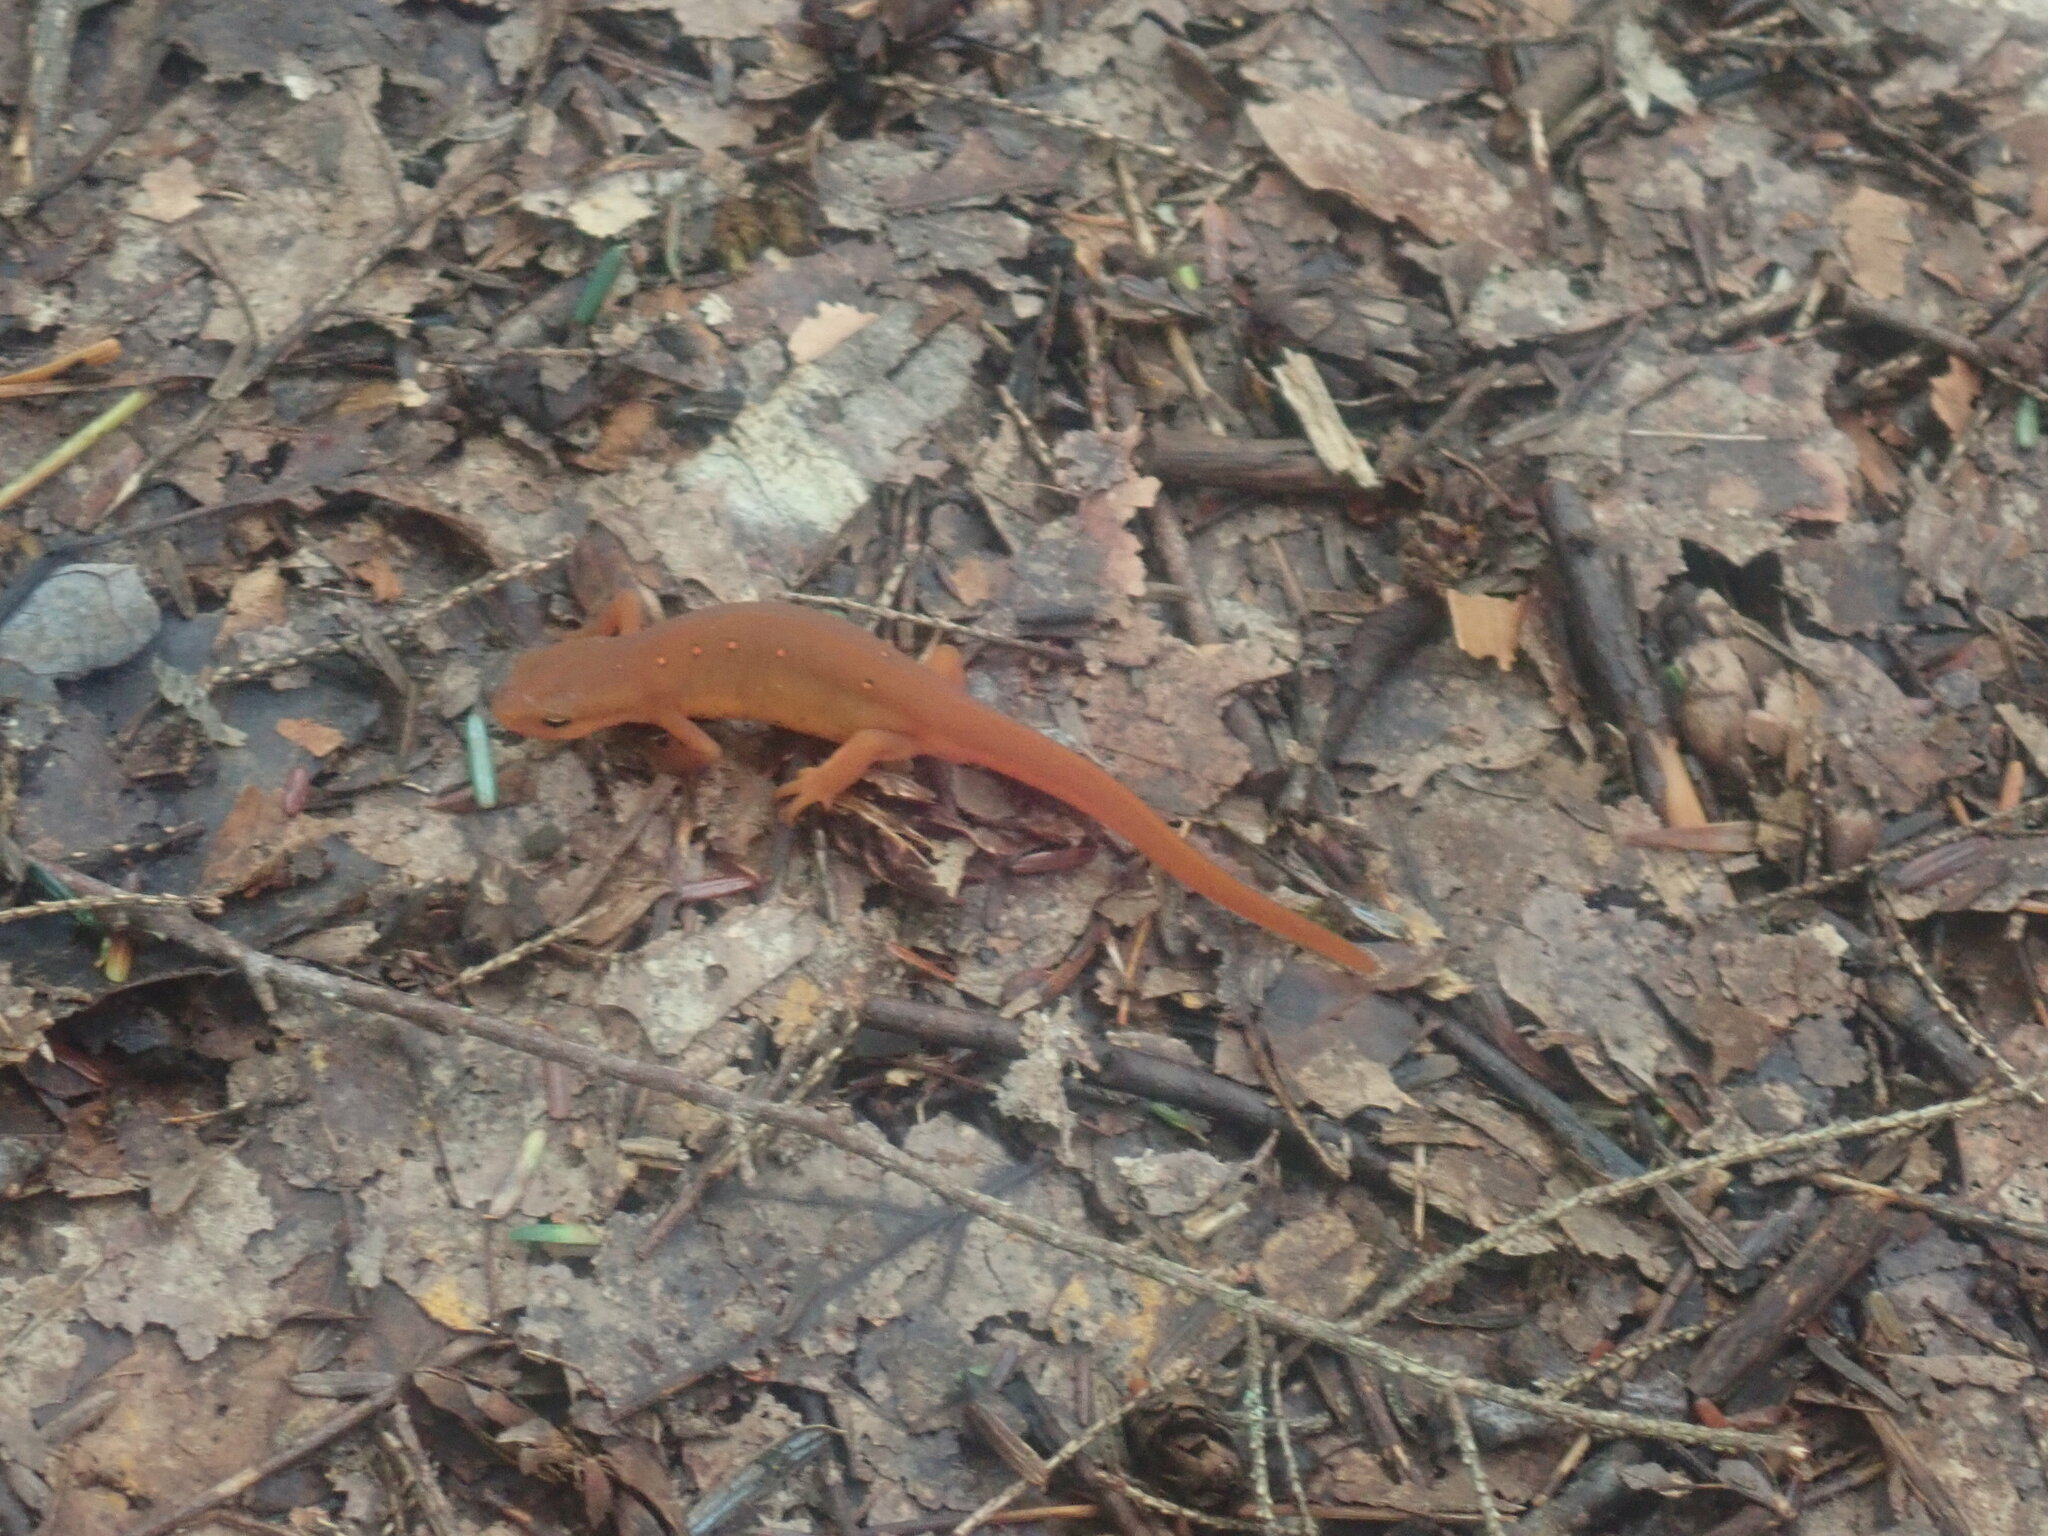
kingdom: Animalia
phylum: Chordata
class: Amphibia
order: Caudata
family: Salamandridae
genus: Notophthalmus
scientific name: Notophthalmus viridescens
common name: Eastern newt
